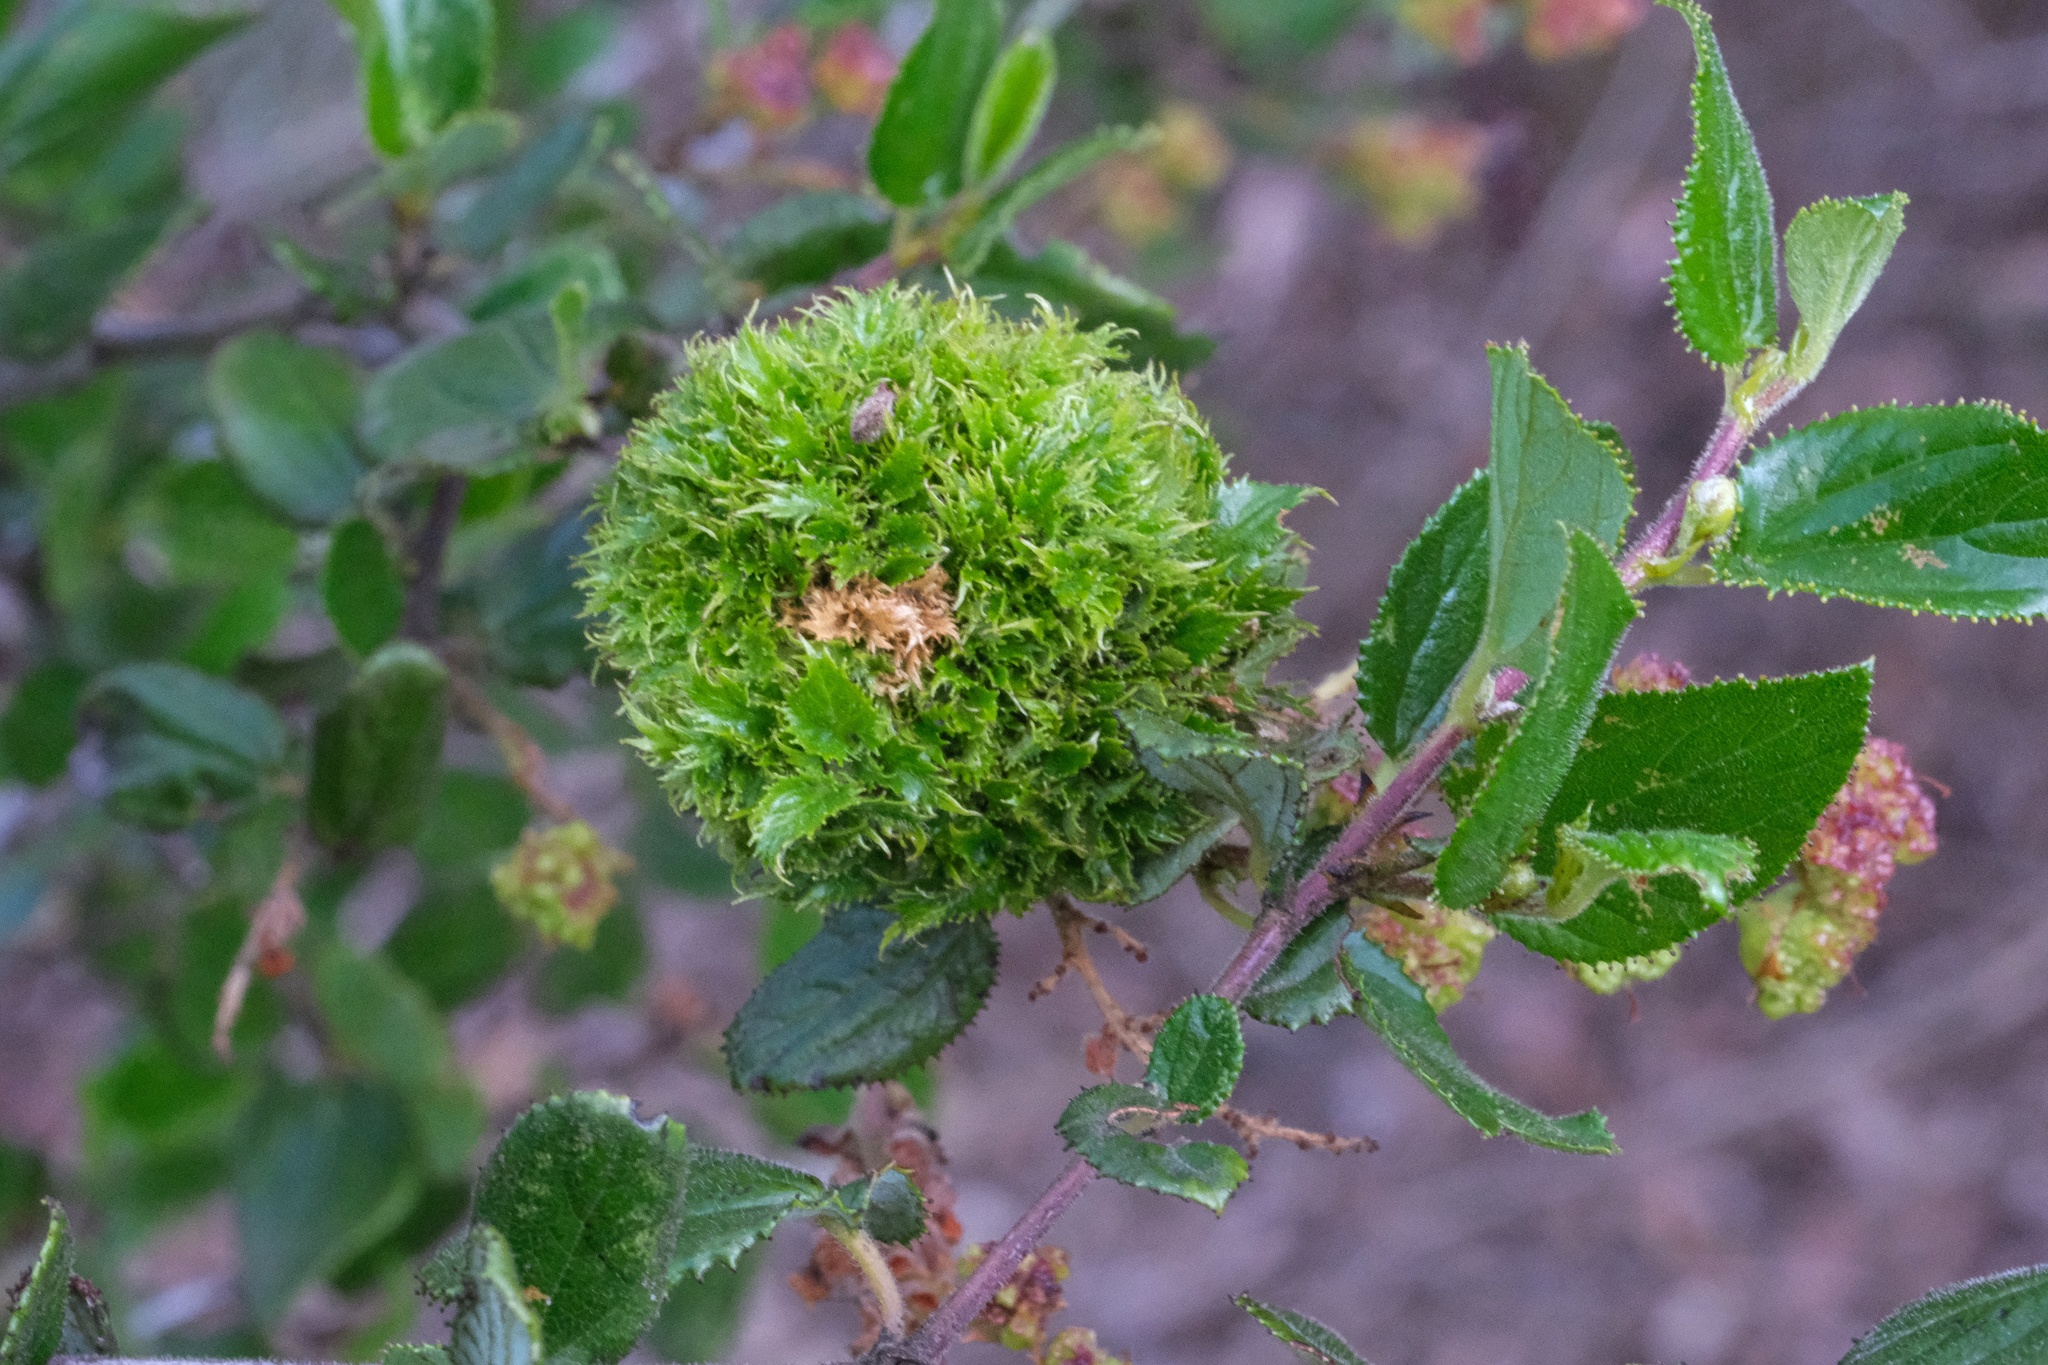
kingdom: Animalia
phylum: Arthropoda
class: Insecta
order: Diptera
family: Cecidomyiidae
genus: Asphondylia
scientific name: Asphondylia ceanothi
